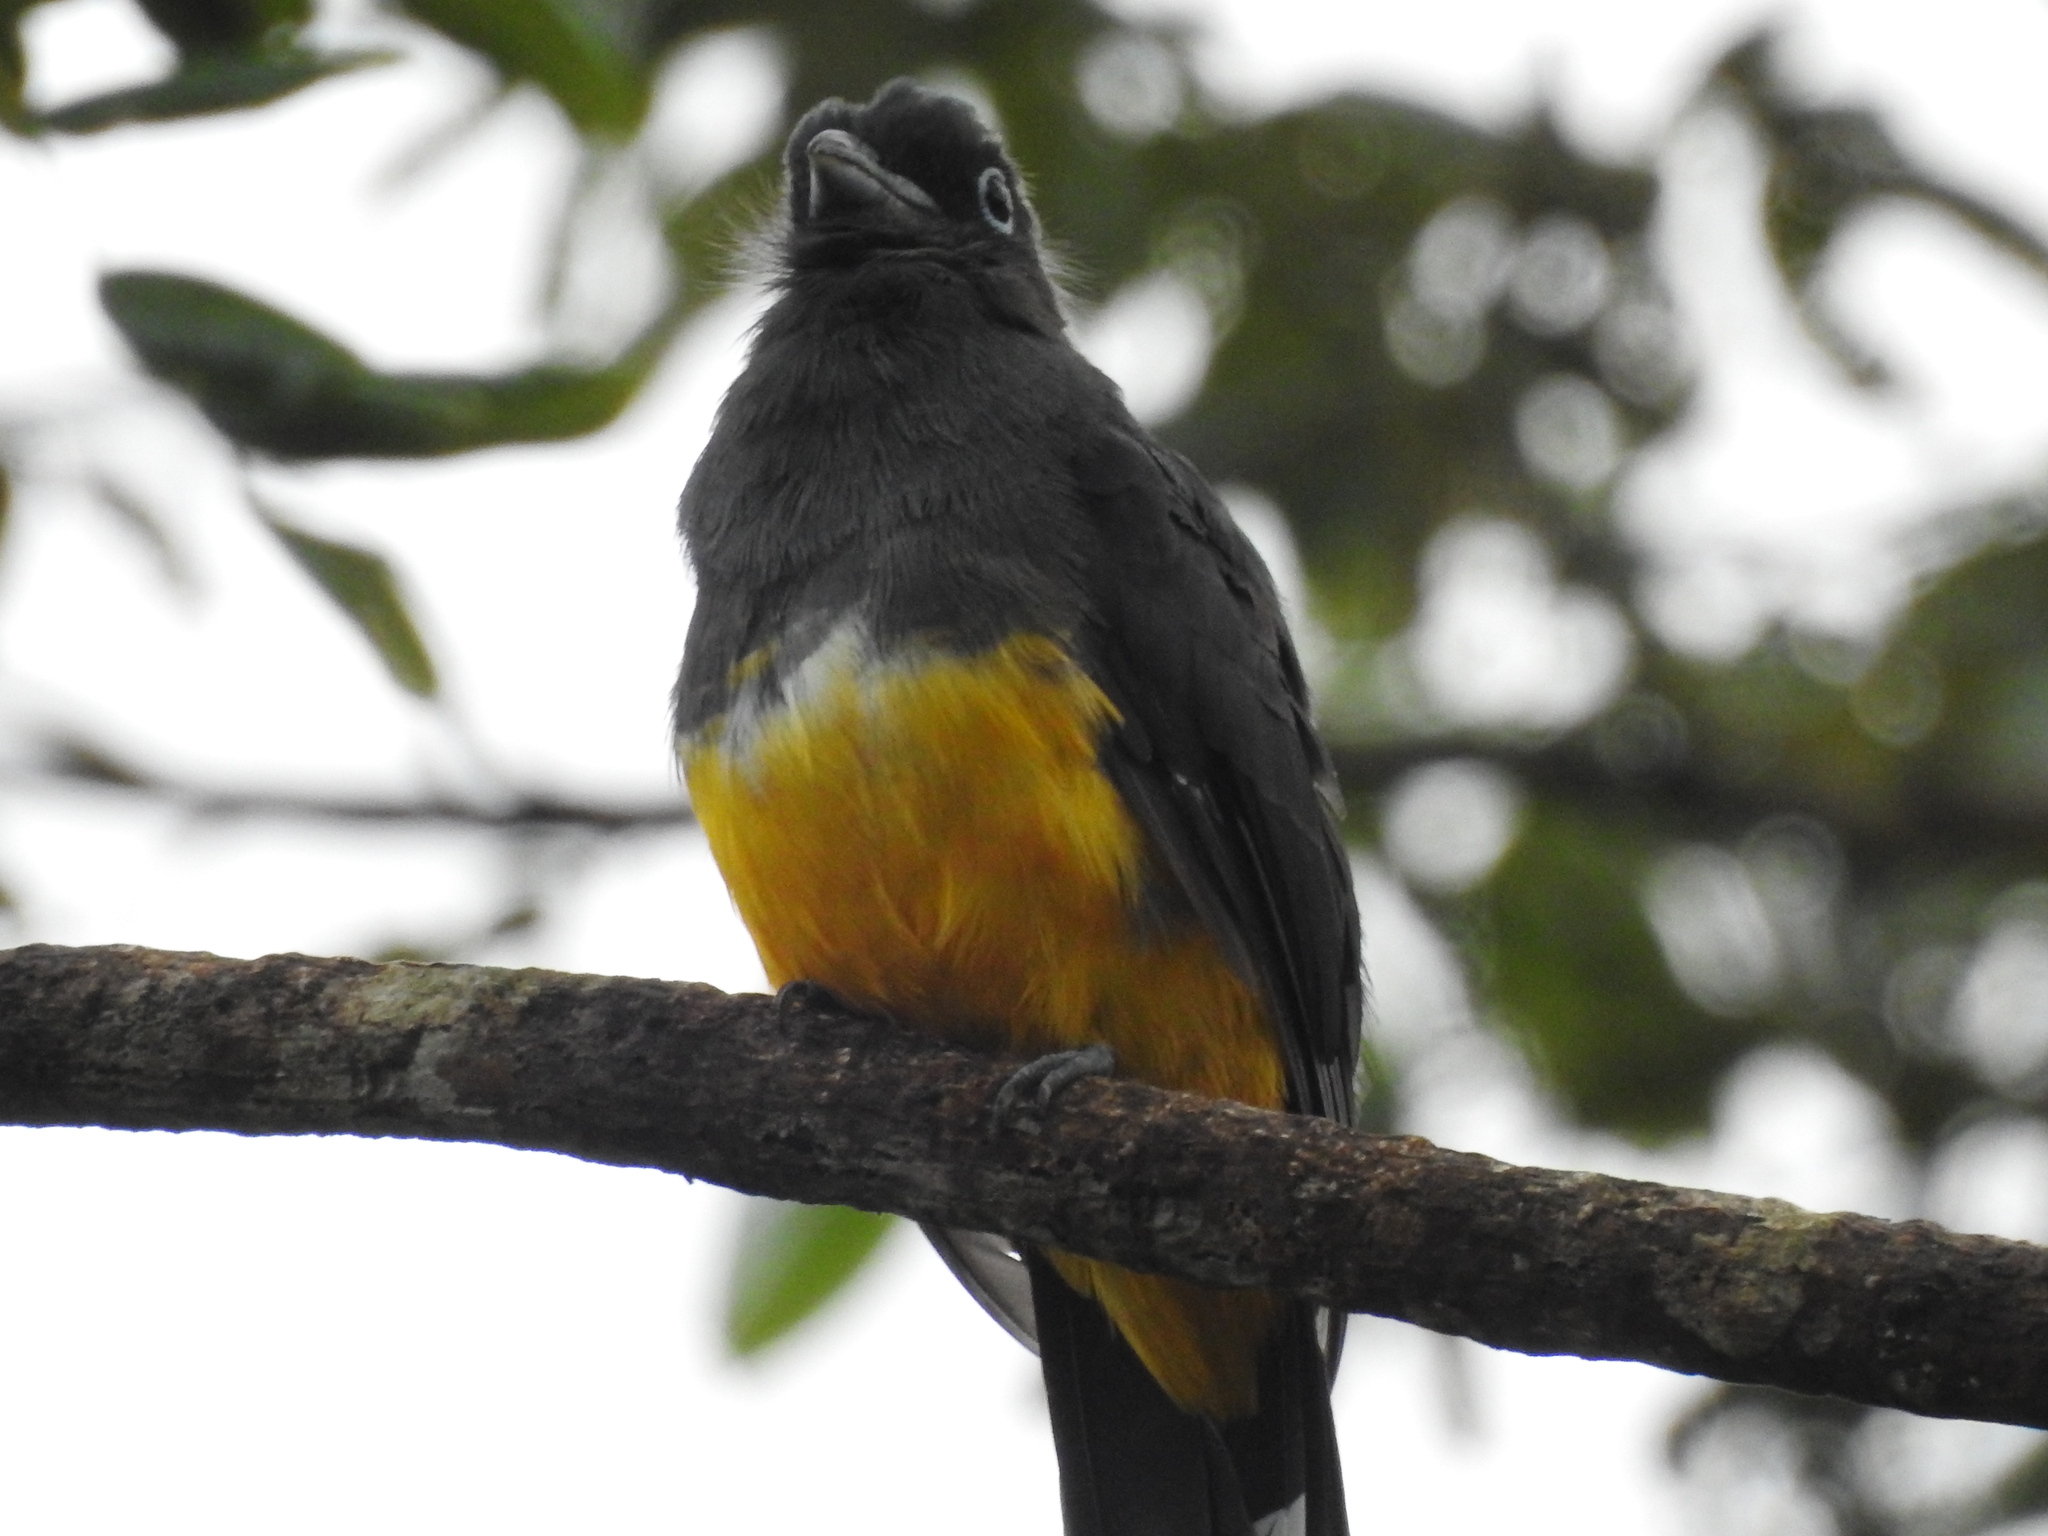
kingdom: Animalia
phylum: Chordata
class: Aves
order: Trogoniformes
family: Trogonidae
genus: Trogon
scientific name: Trogon melanocephalus
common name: Black-headed trogon
